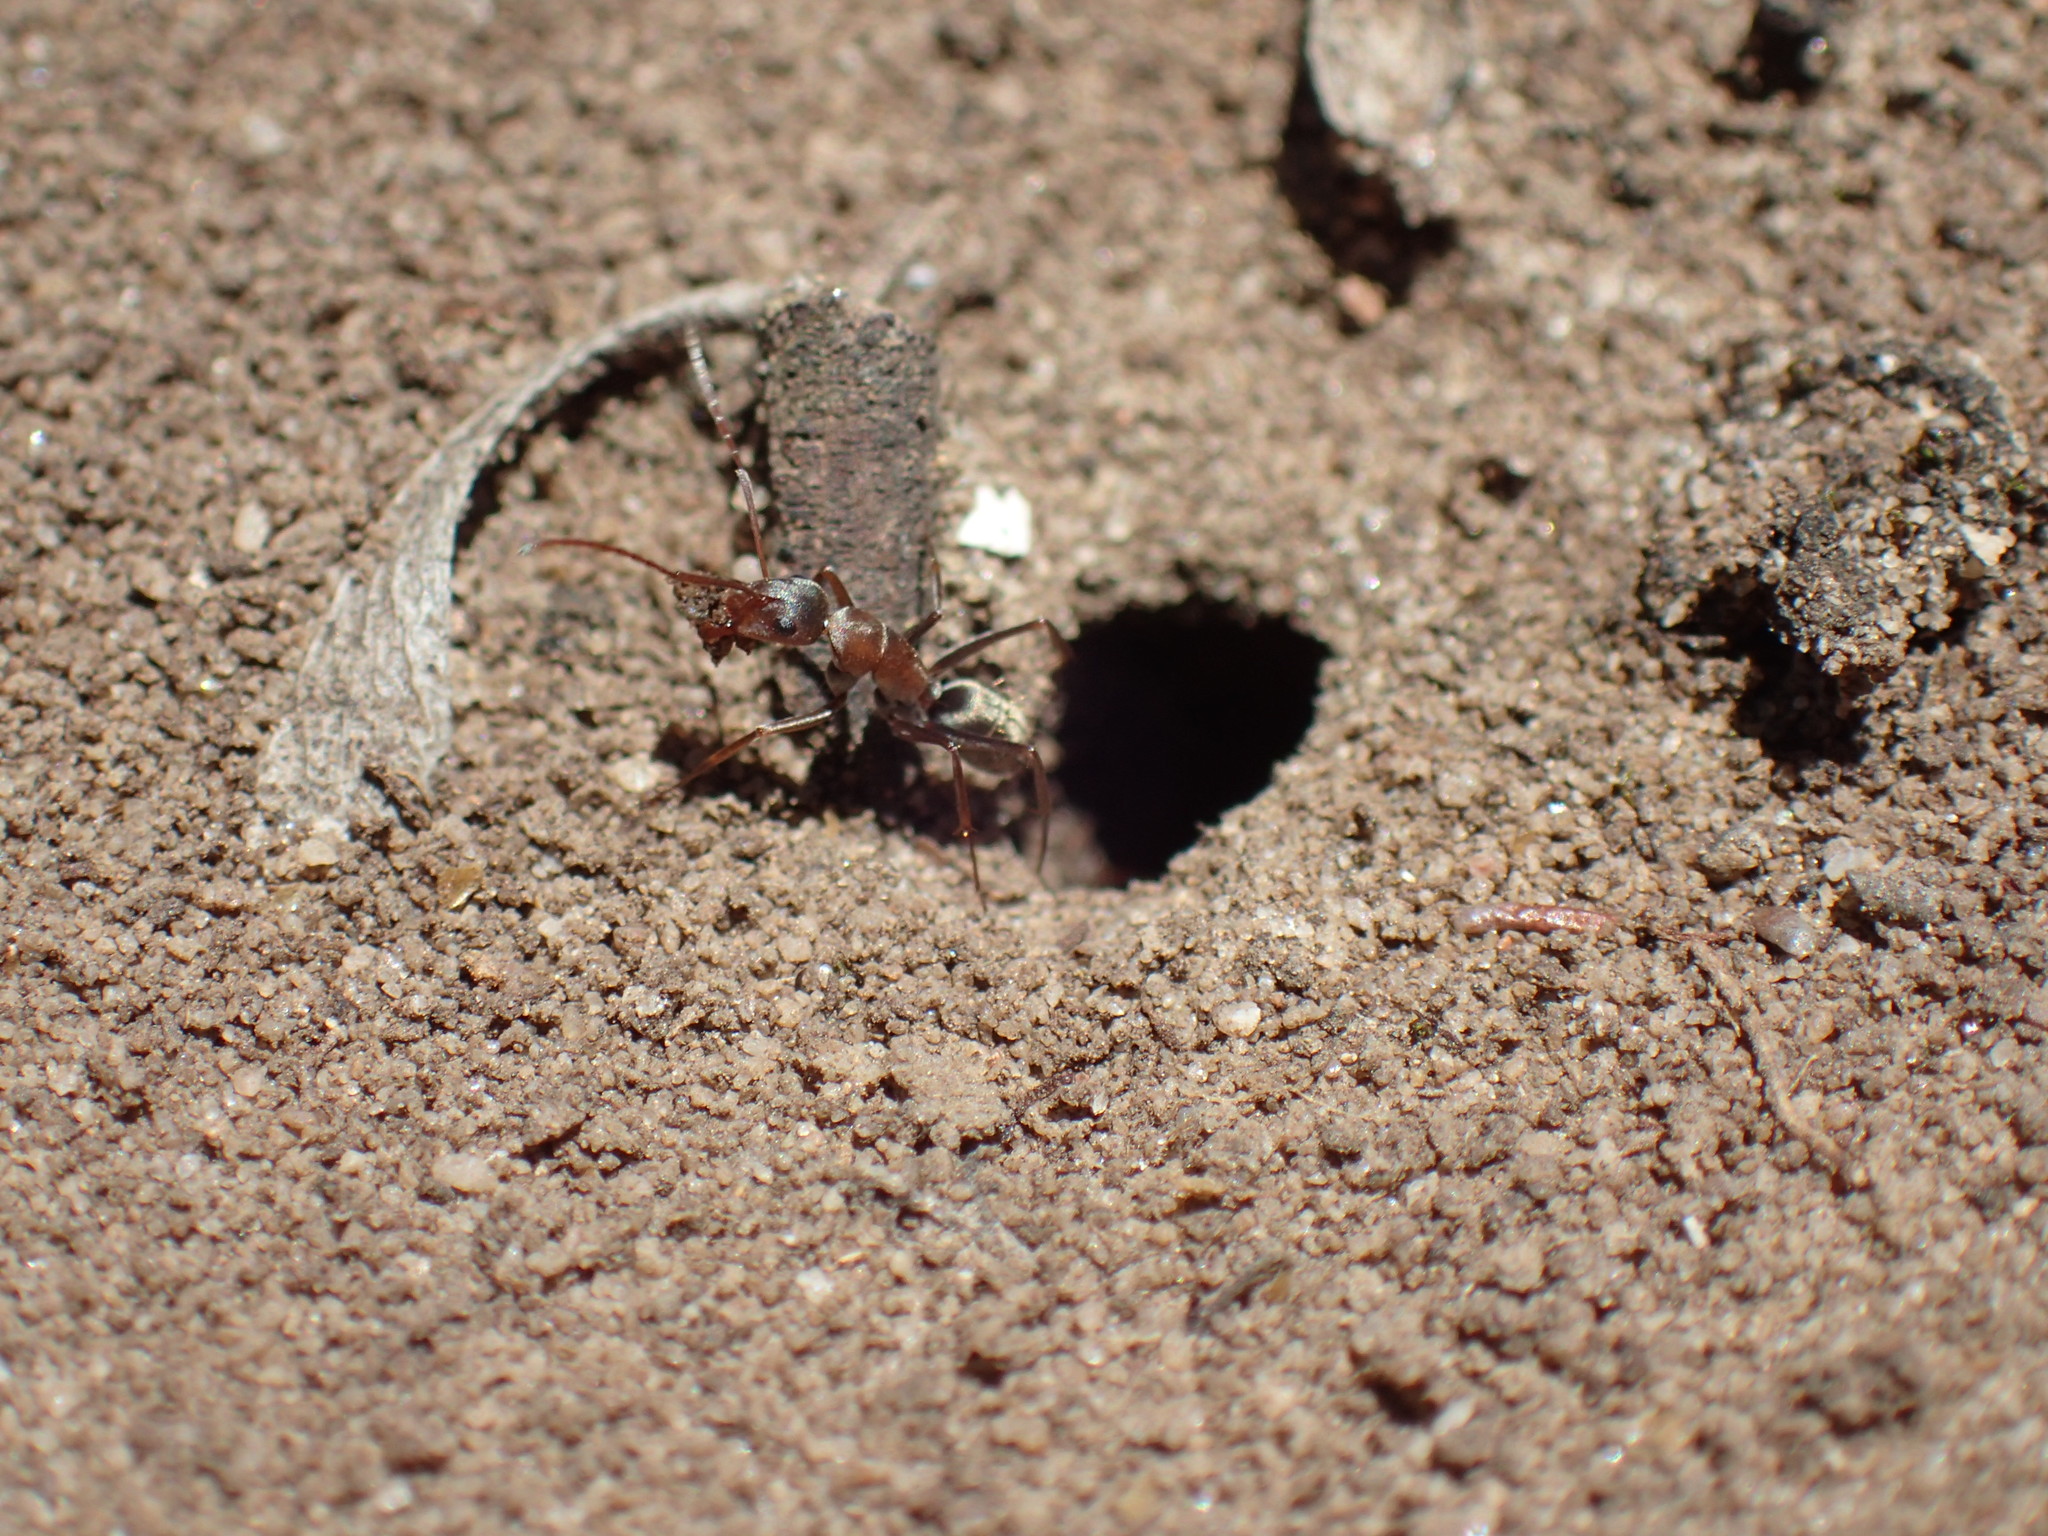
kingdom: Animalia
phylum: Arthropoda
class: Insecta
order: Hymenoptera
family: Formicidae
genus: Camponotus
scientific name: Camponotus vestitus
